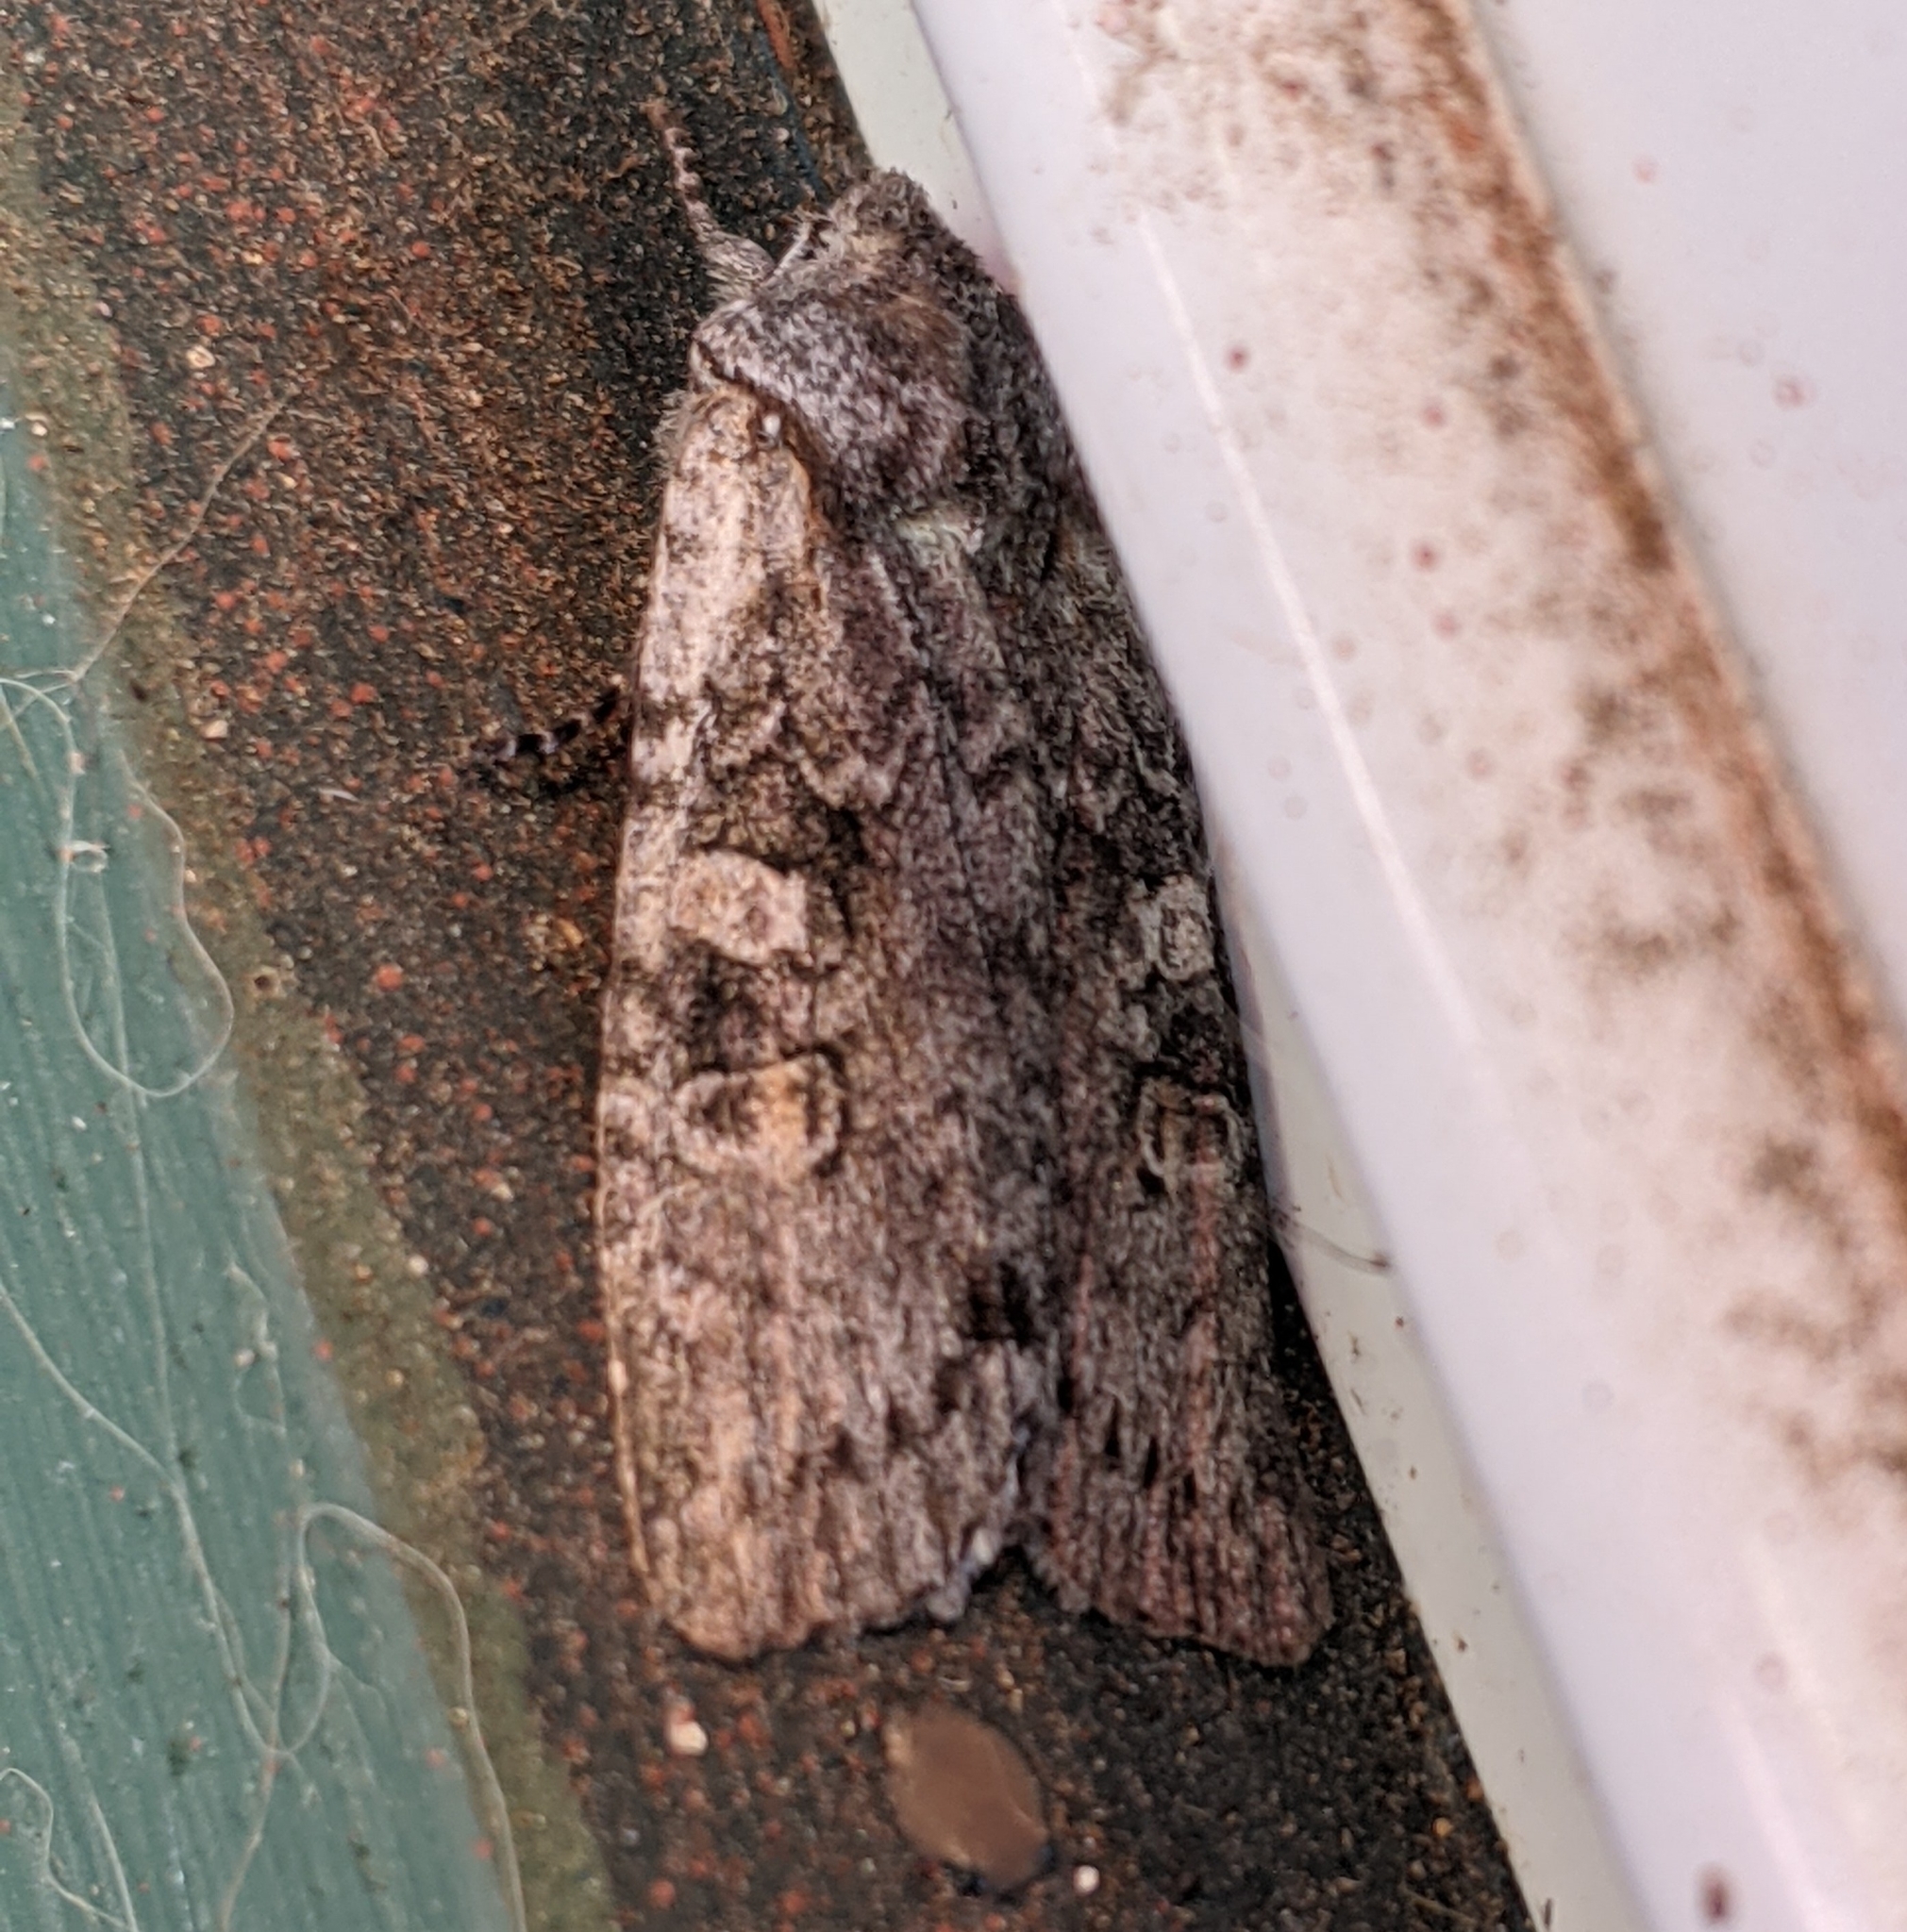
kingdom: Animalia
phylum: Arthropoda
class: Insecta
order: Lepidoptera
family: Noctuidae
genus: Lithophane
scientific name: Lithophane pertorrida
